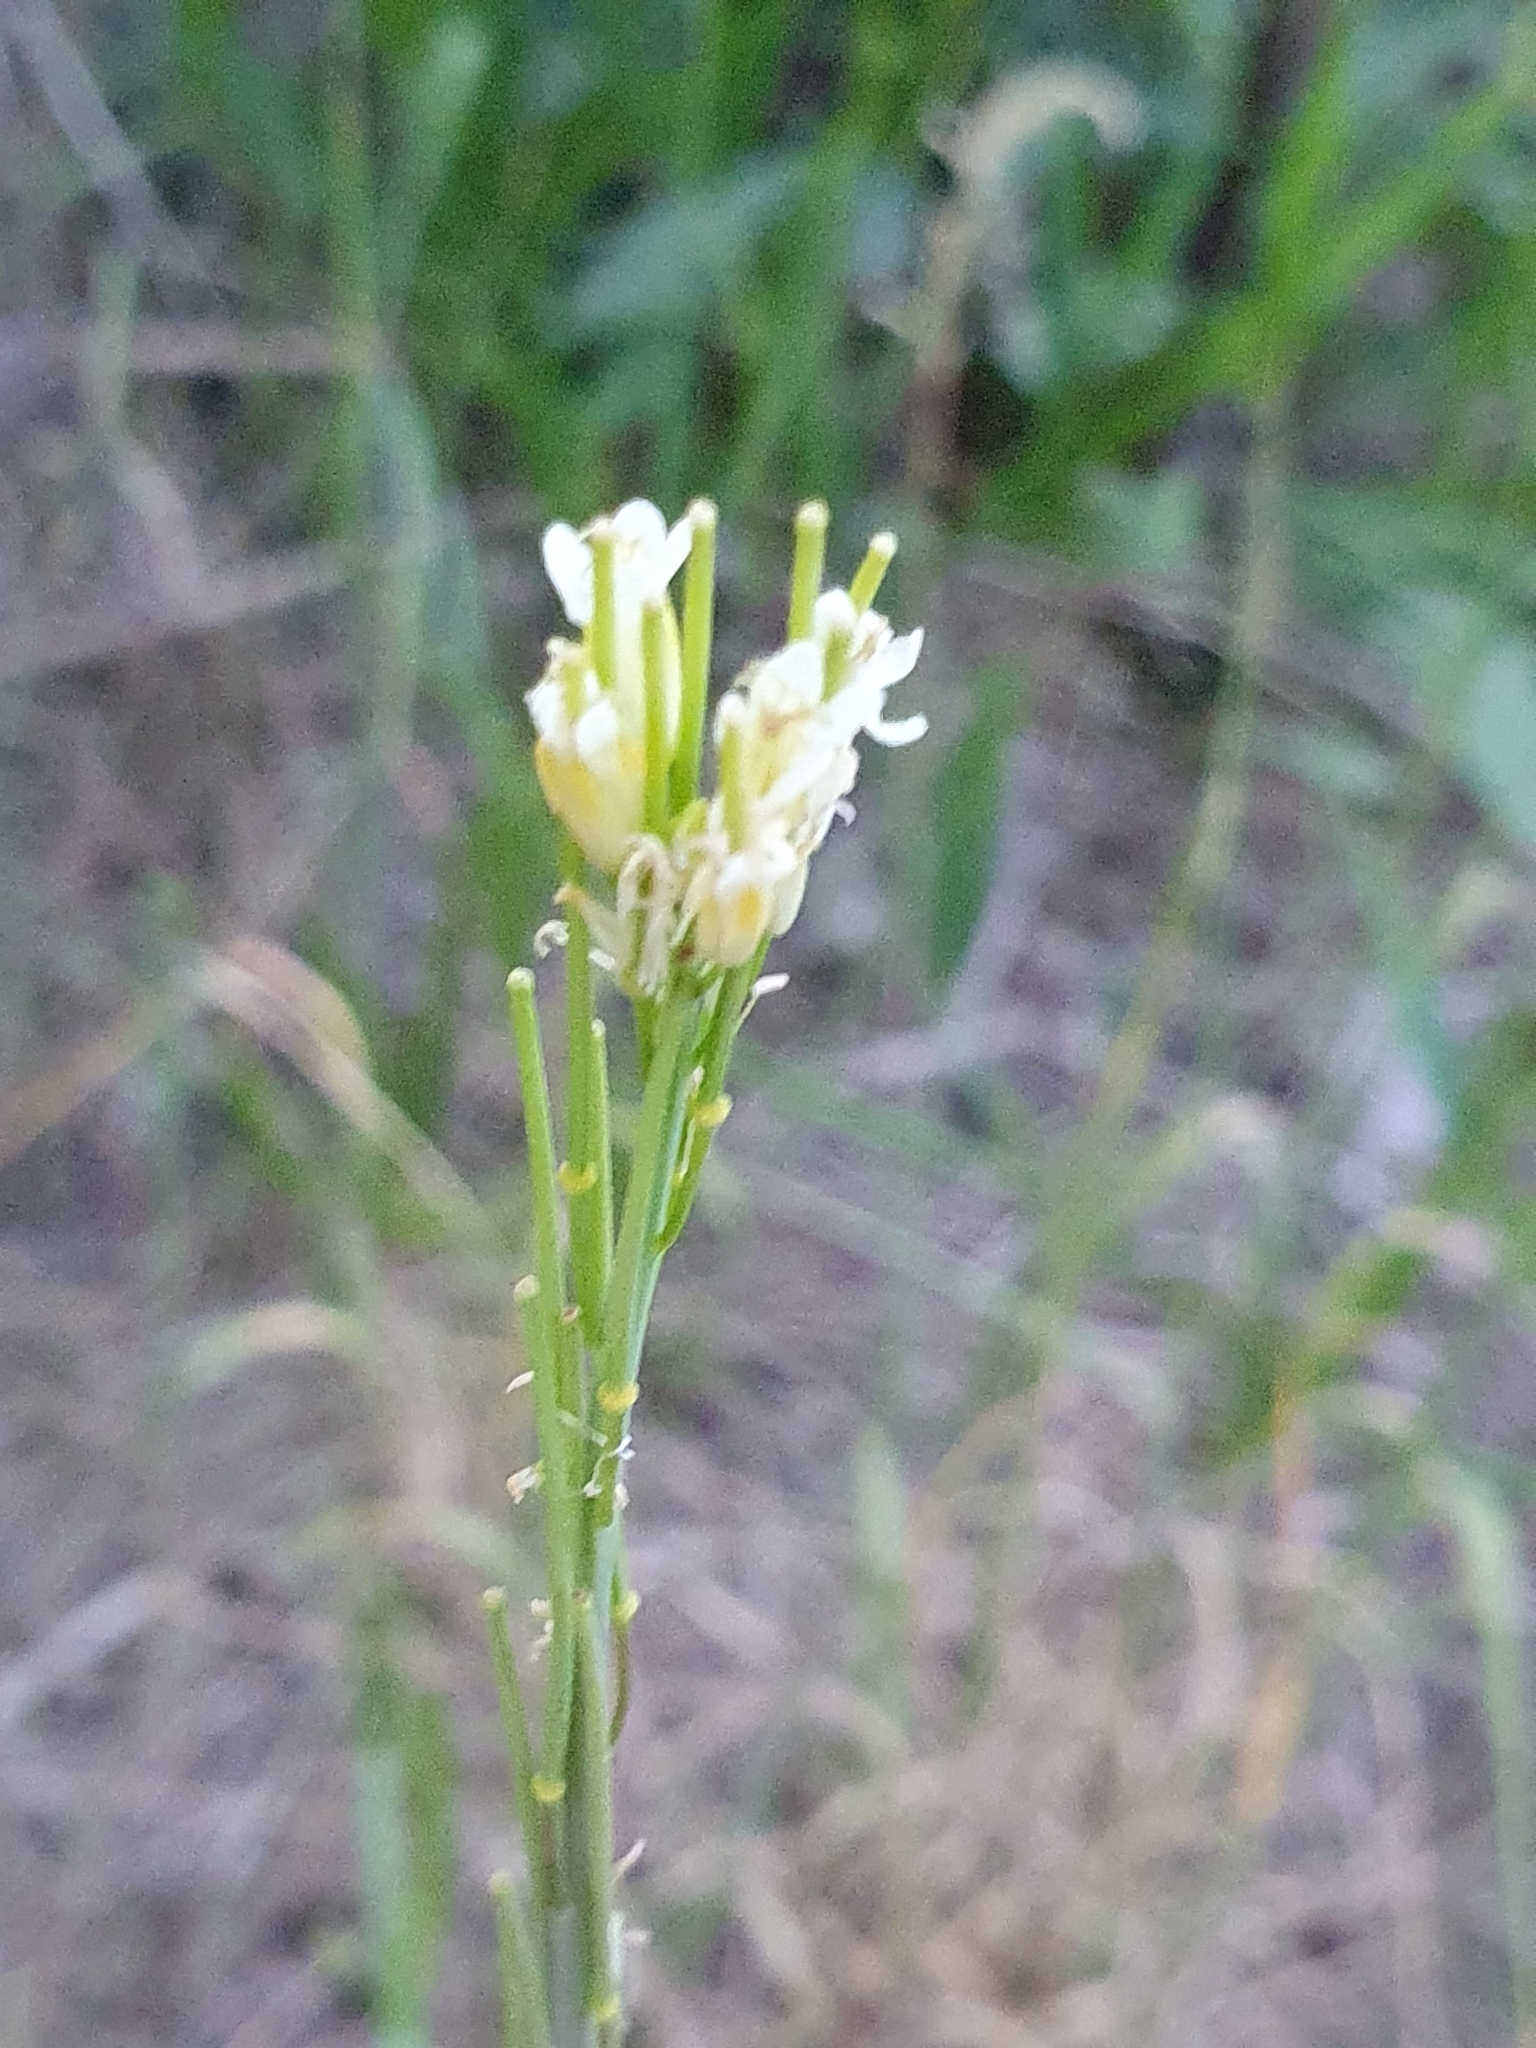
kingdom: Plantae
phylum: Tracheophyta
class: Magnoliopsida
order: Brassicales
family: Brassicaceae
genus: Turritis
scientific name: Turritis glabra
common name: Tower rockcress
